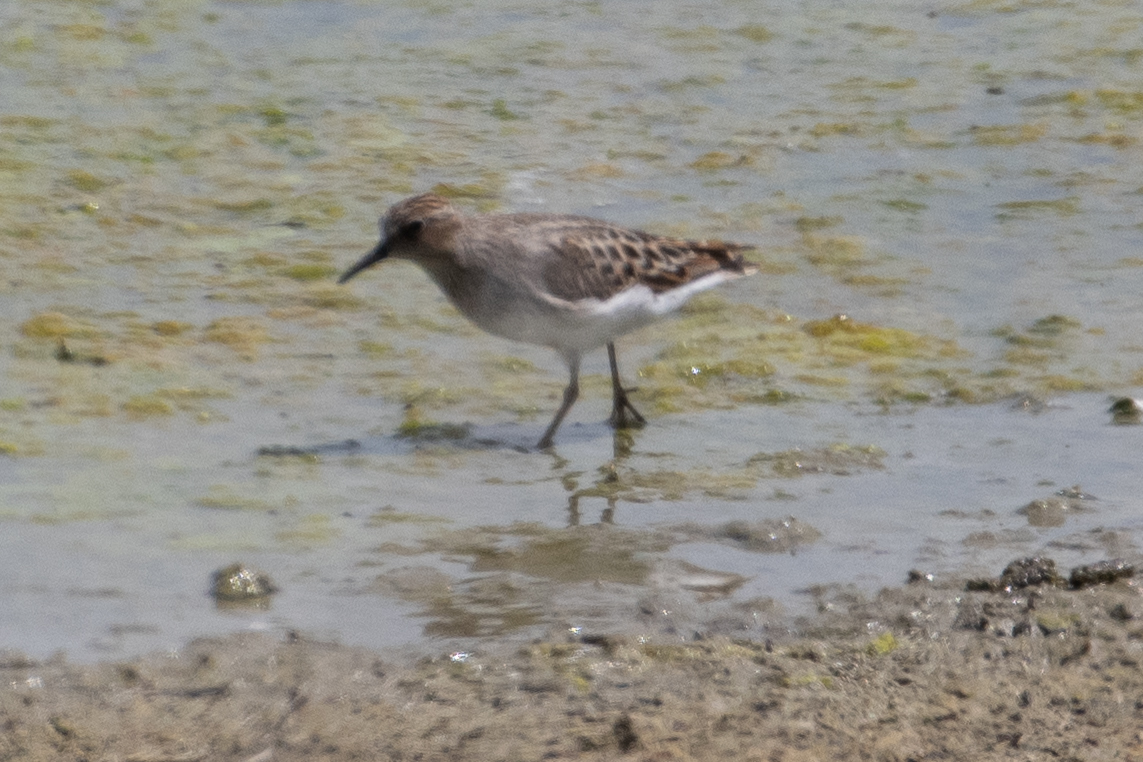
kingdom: Animalia
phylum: Chordata
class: Aves
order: Charadriiformes
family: Scolopacidae
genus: Calidris
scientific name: Calidris minutilla
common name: Least sandpiper
